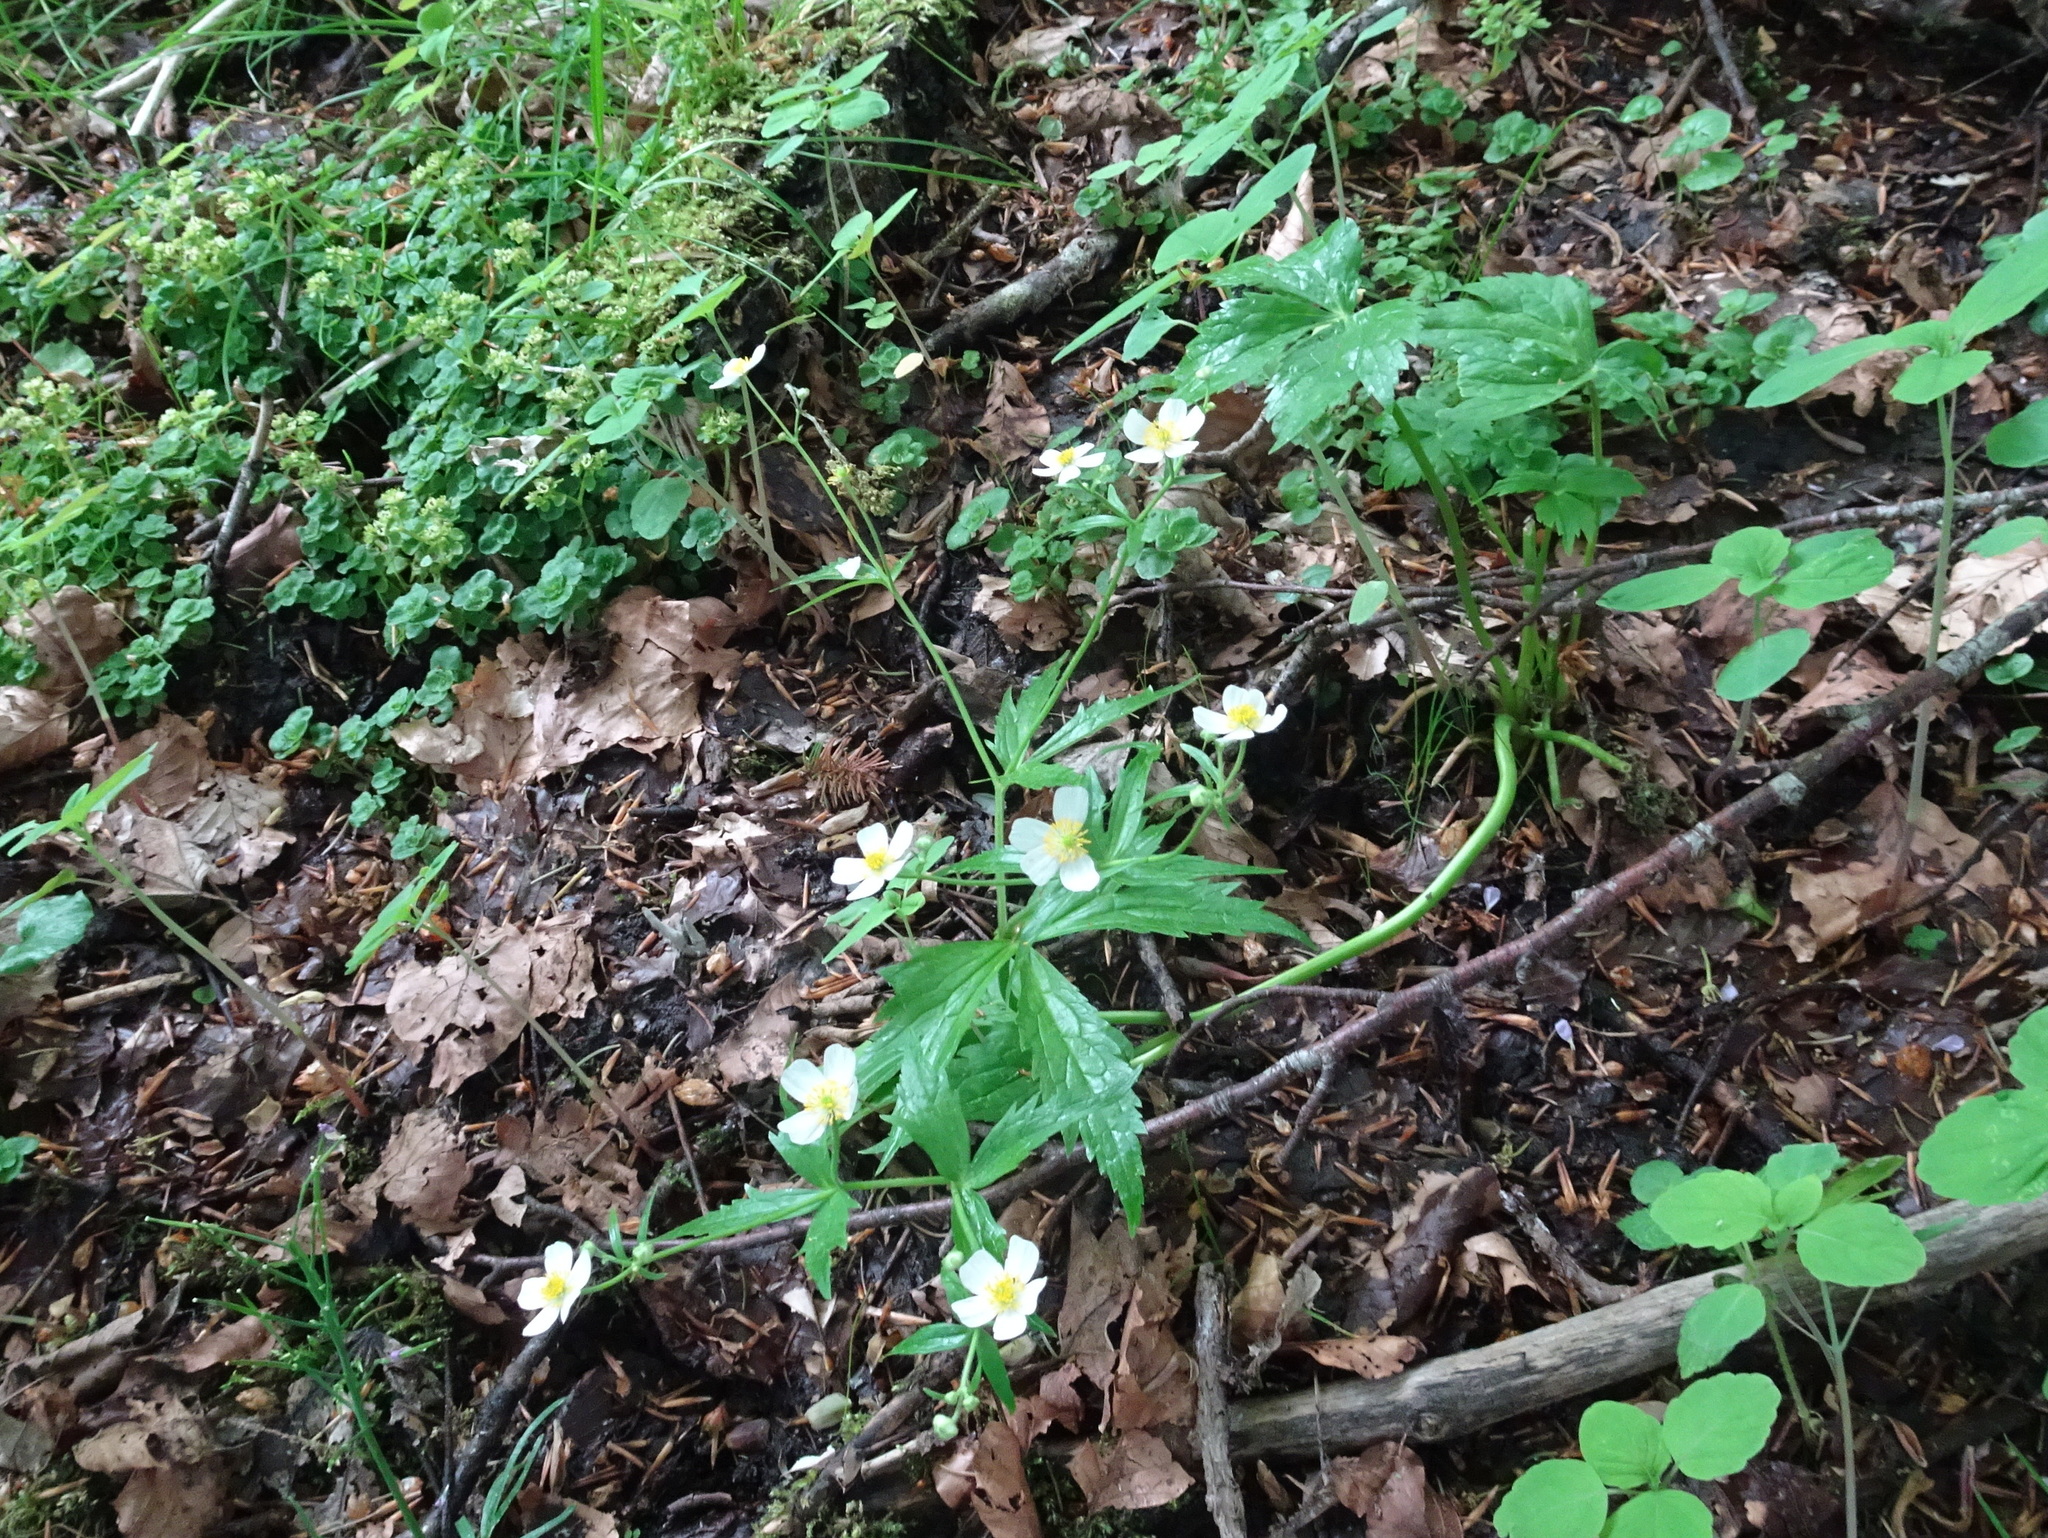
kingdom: Plantae
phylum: Tracheophyta
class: Magnoliopsida
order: Ranunculales
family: Ranunculaceae
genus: Ranunculus
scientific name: Ranunculus aconitifolius
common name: Aconite-leaved buttercup
